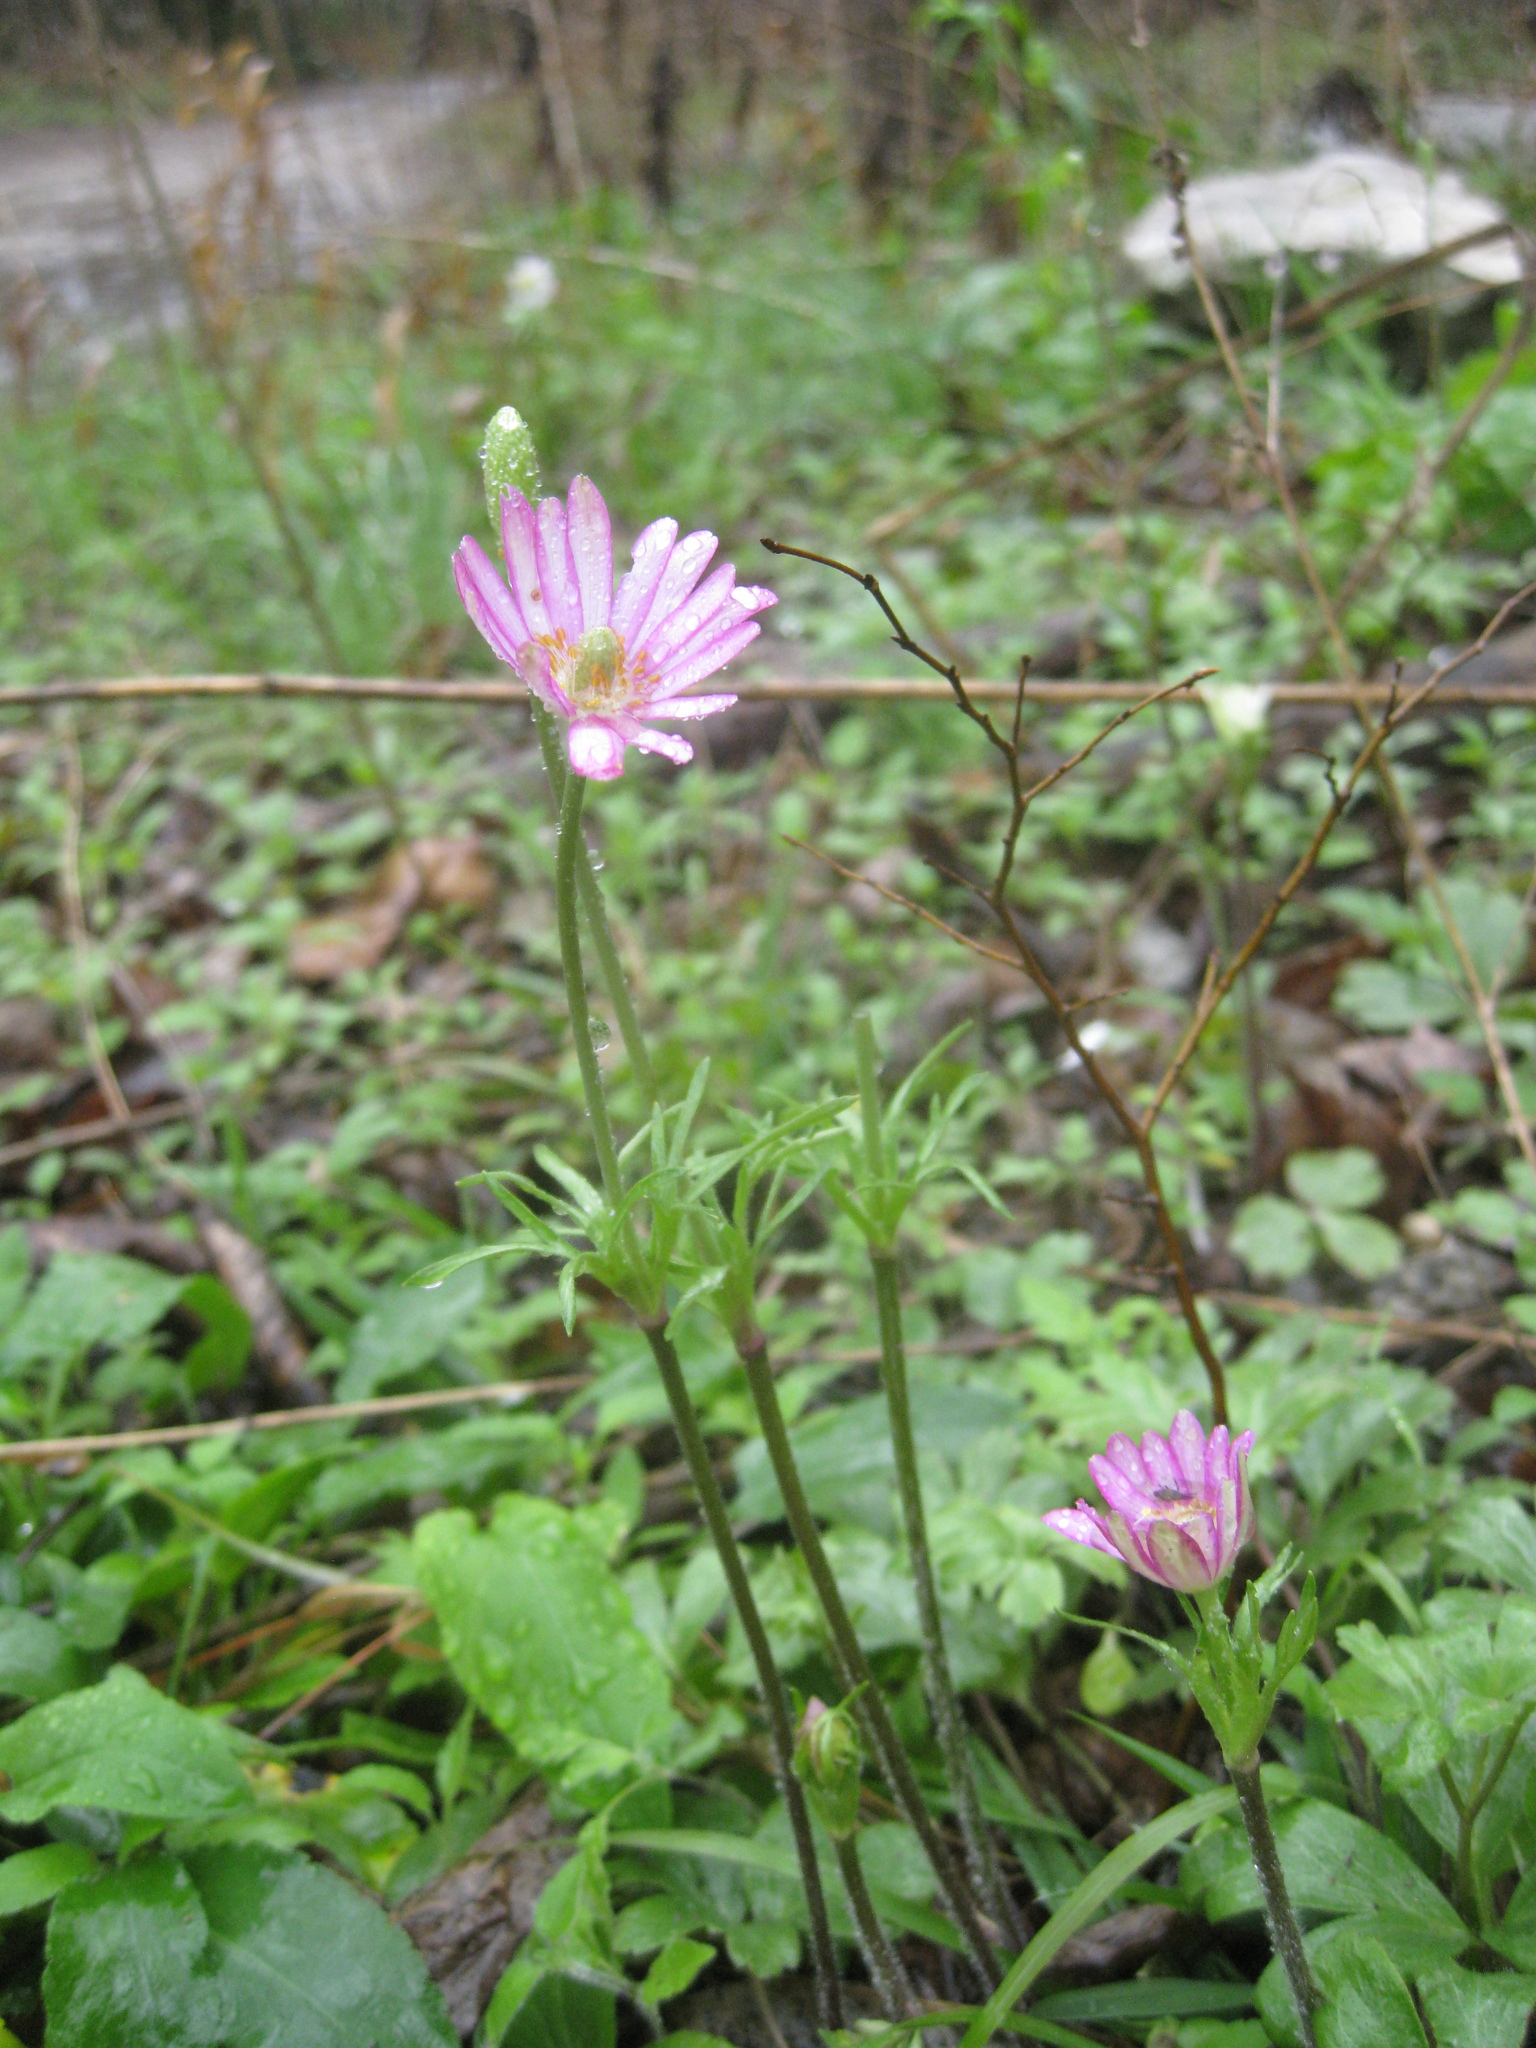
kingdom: Plantae
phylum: Tracheophyta
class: Magnoliopsida
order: Ranunculales
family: Ranunculaceae
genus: Anemone
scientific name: Anemone berlandieri
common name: Ten-petal anemone
